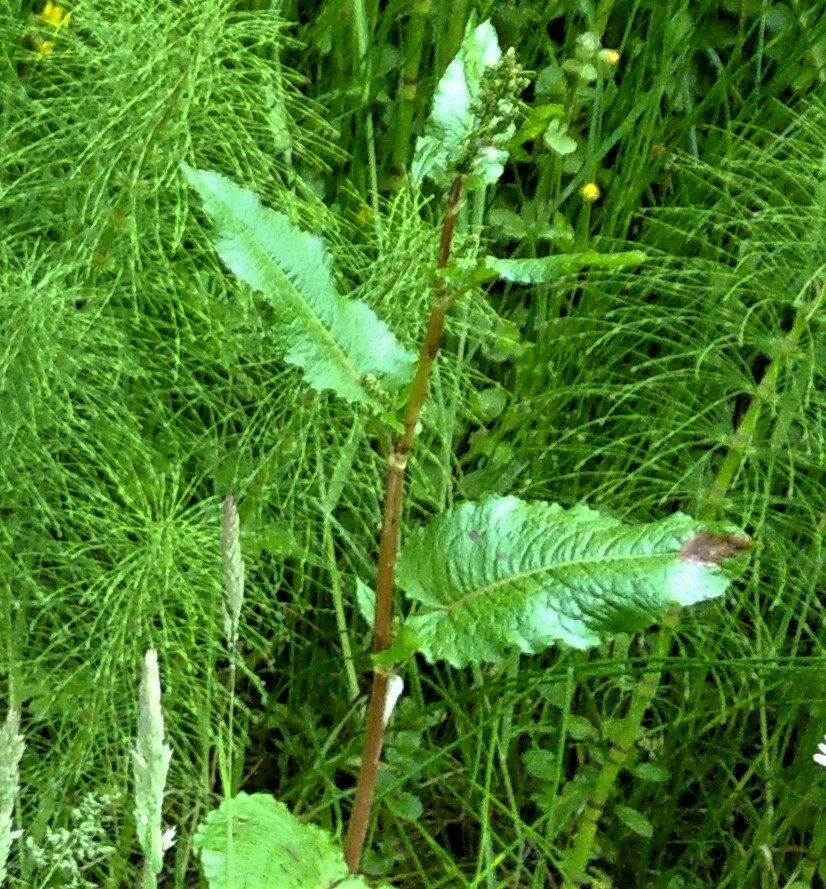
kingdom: Plantae
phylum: Tracheophyta
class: Magnoliopsida
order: Caryophyllales
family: Polygonaceae
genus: Rumex
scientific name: Rumex obtusifolius
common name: Bitter dock
